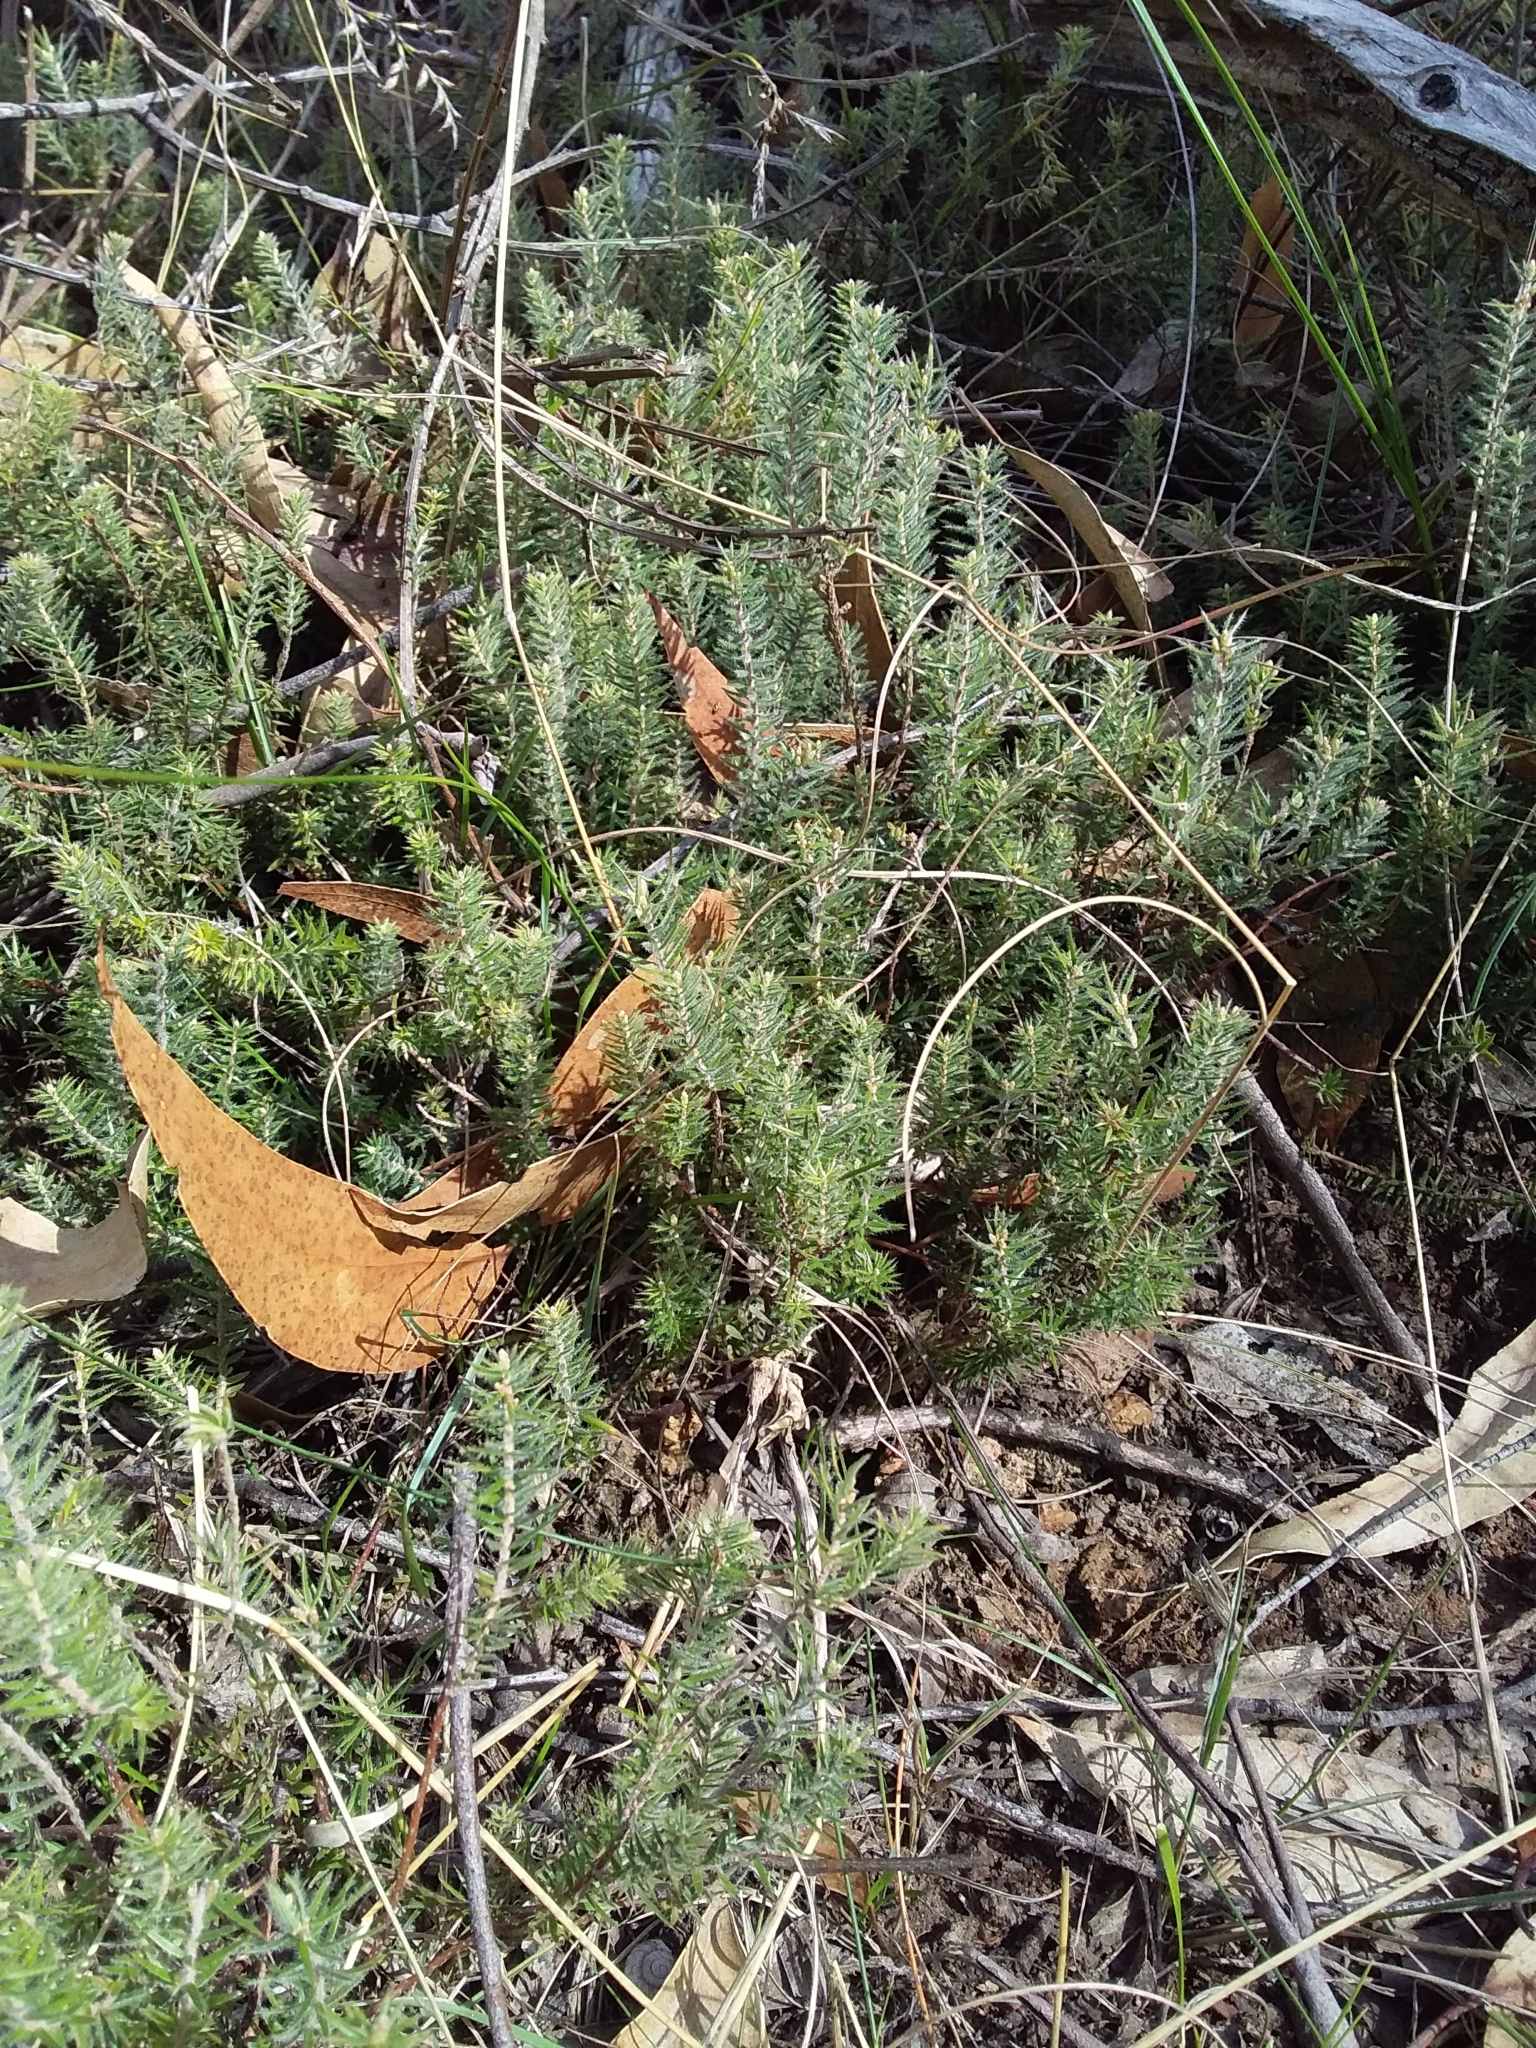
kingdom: Plantae
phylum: Tracheophyta
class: Magnoliopsida
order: Ericales
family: Ericaceae
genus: Acrotriche
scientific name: Acrotriche serrulata
